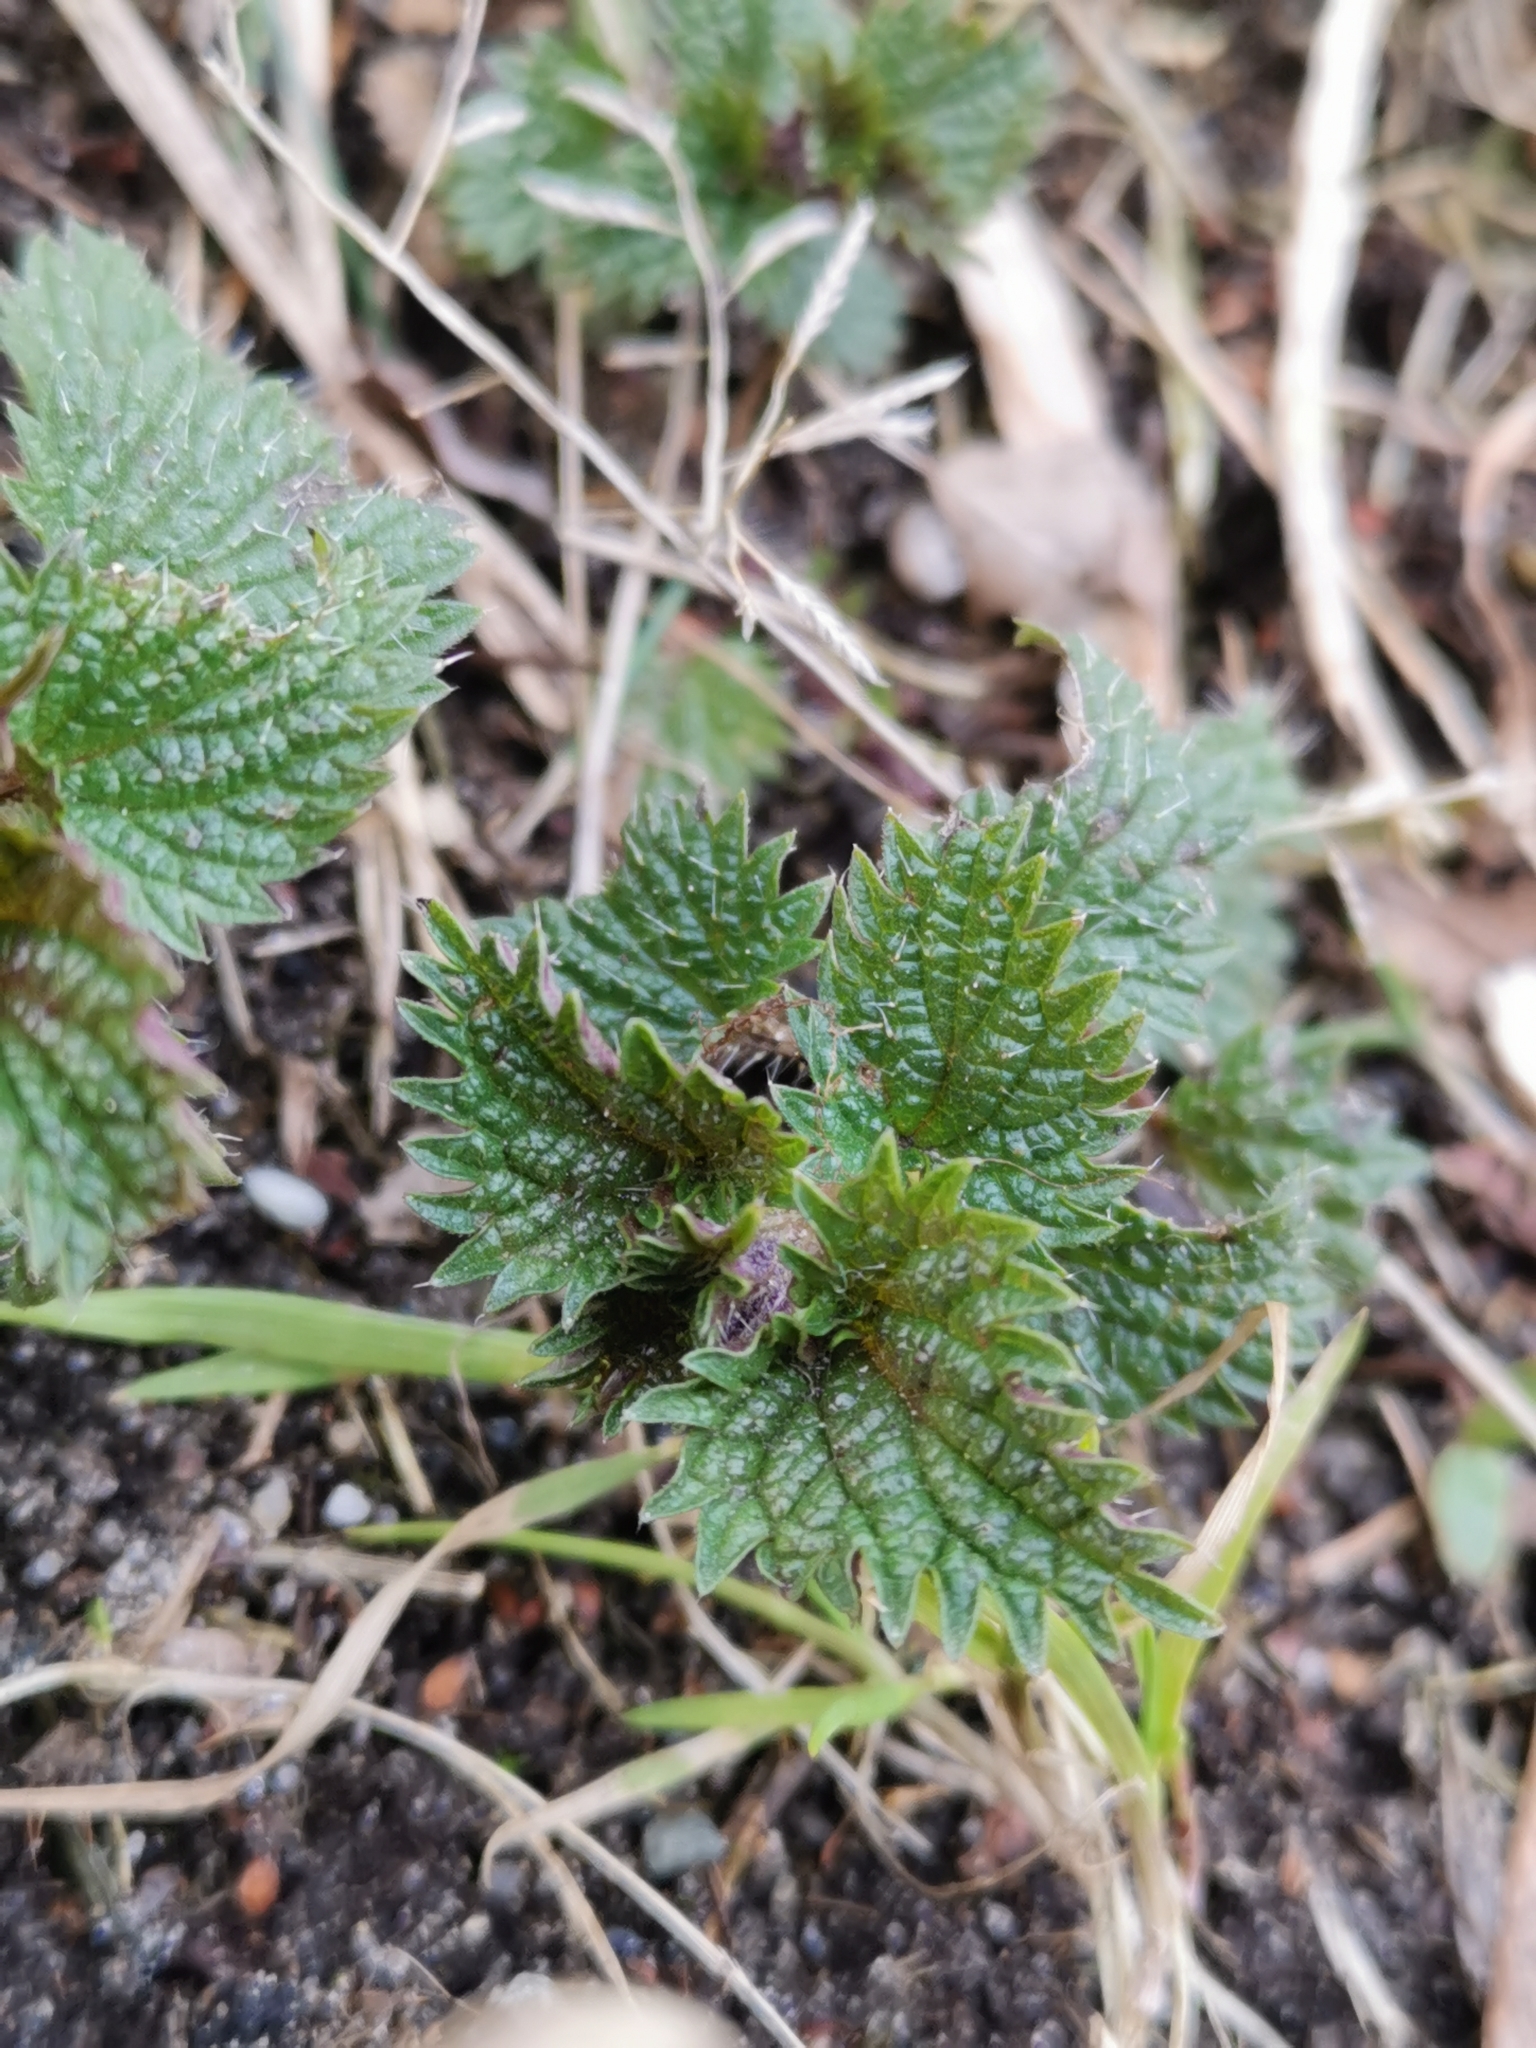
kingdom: Plantae
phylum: Tracheophyta
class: Magnoliopsida
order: Rosales
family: Urticaceae
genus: Urtica
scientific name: Urtica dioica
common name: Common nettle
